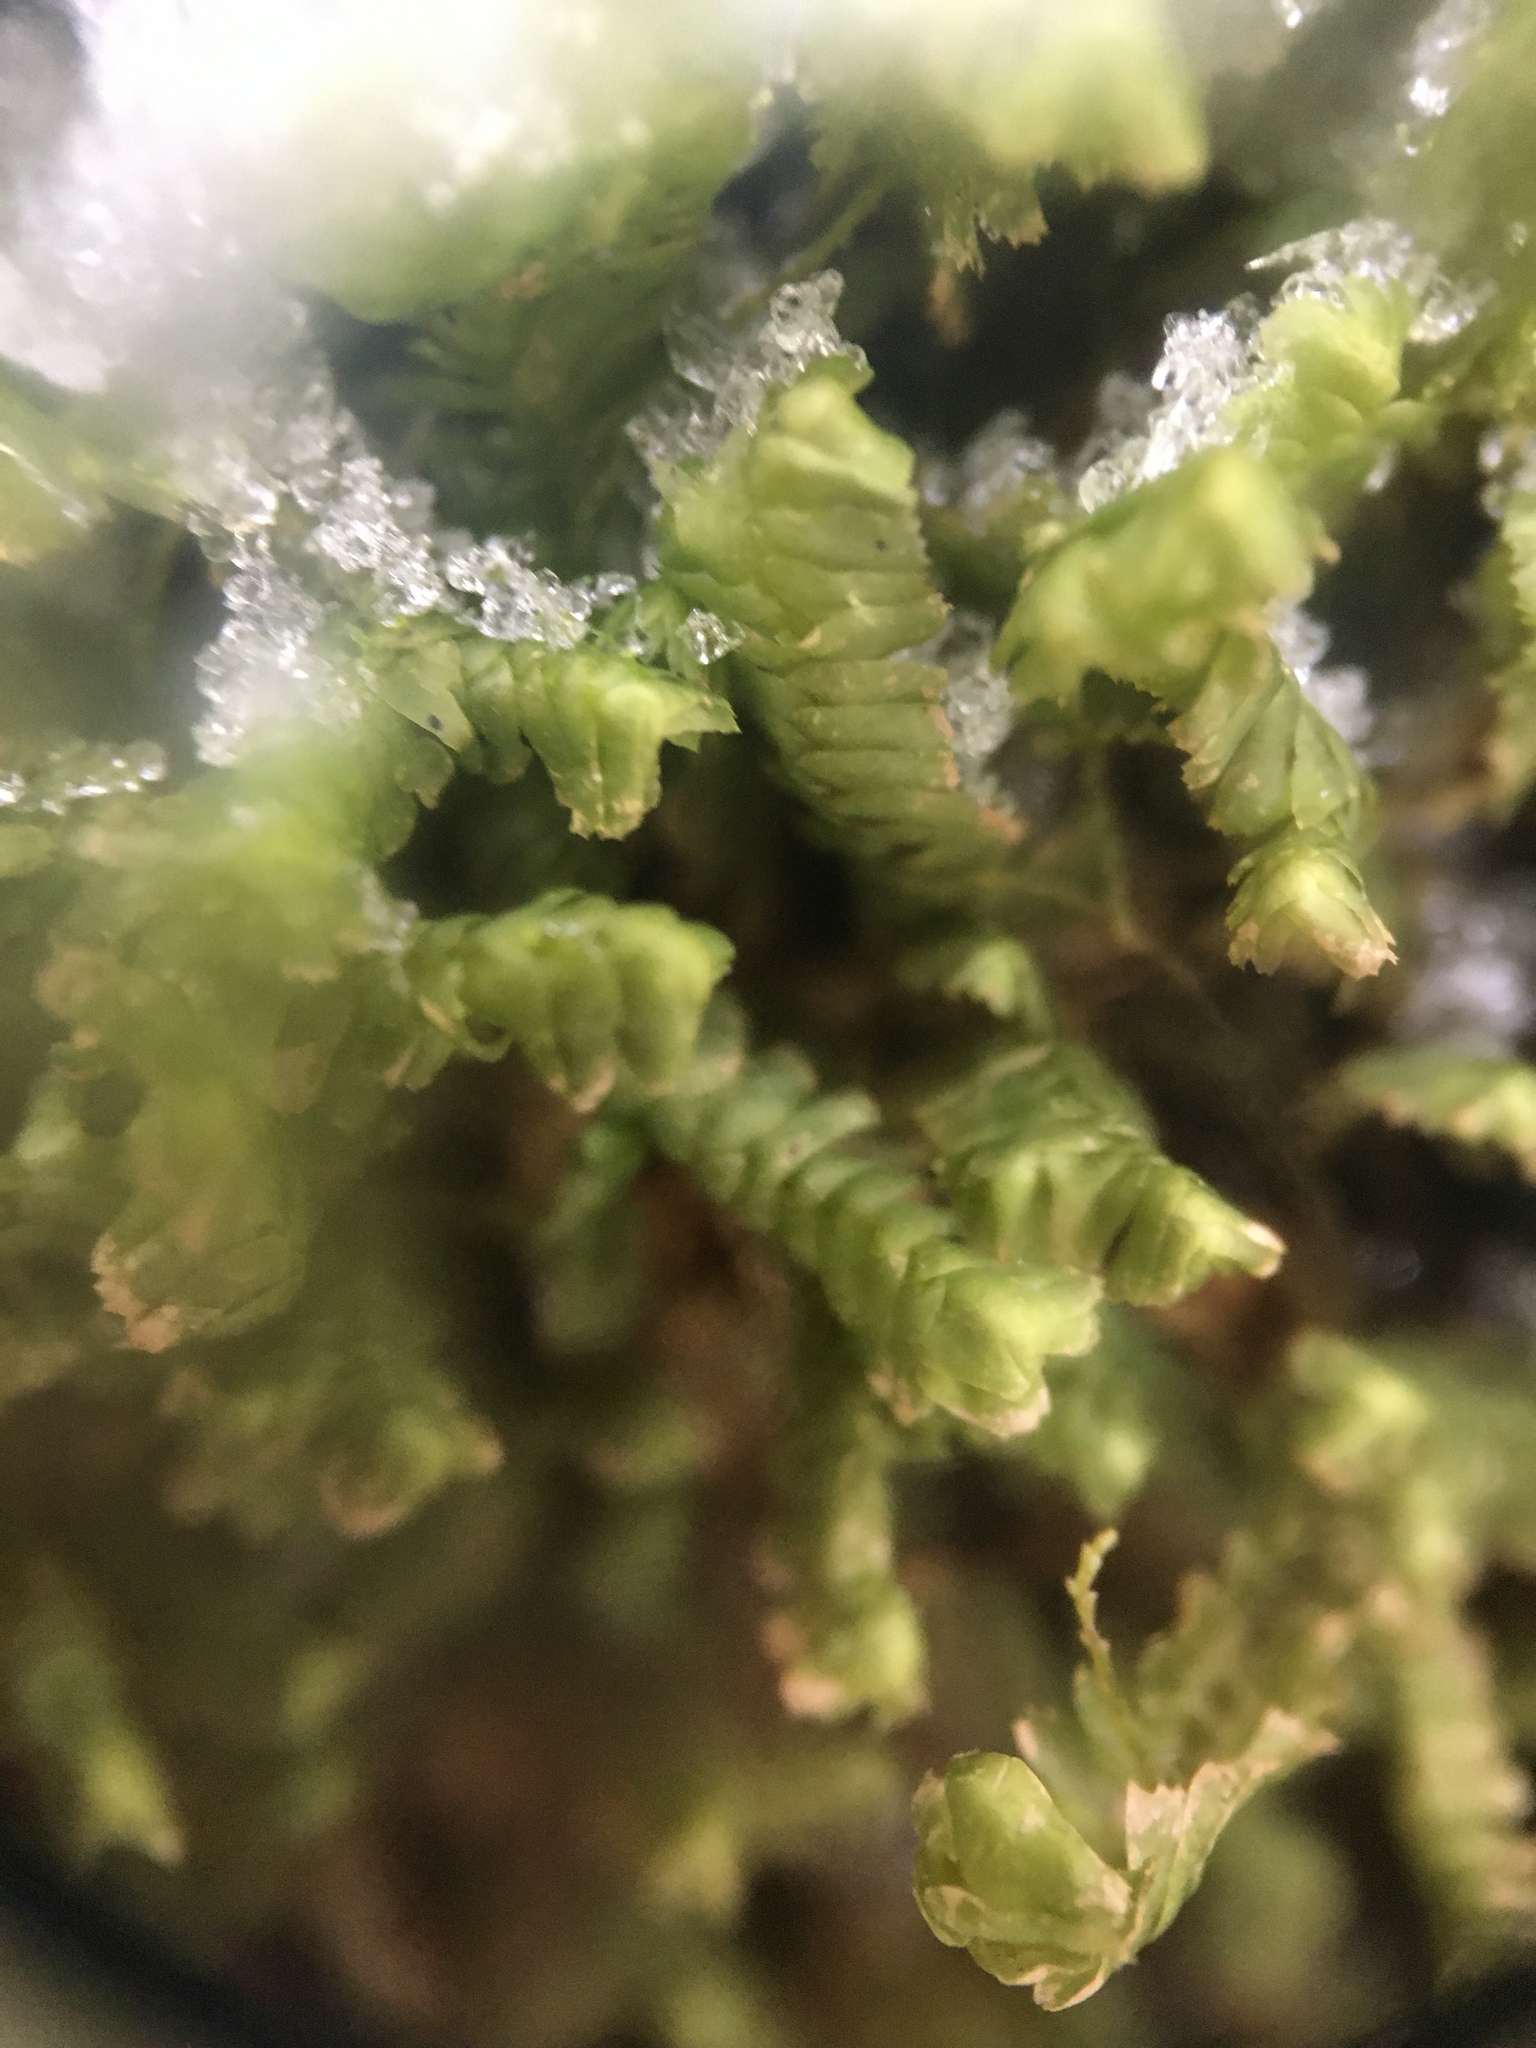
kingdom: Plantae
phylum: Marchantiophyta
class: Jungermanniopsida
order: Jungermanniales
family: Lepidoziaceae
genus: Bazzania
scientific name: Bazzania trilobata
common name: Three-lobed whipwort
